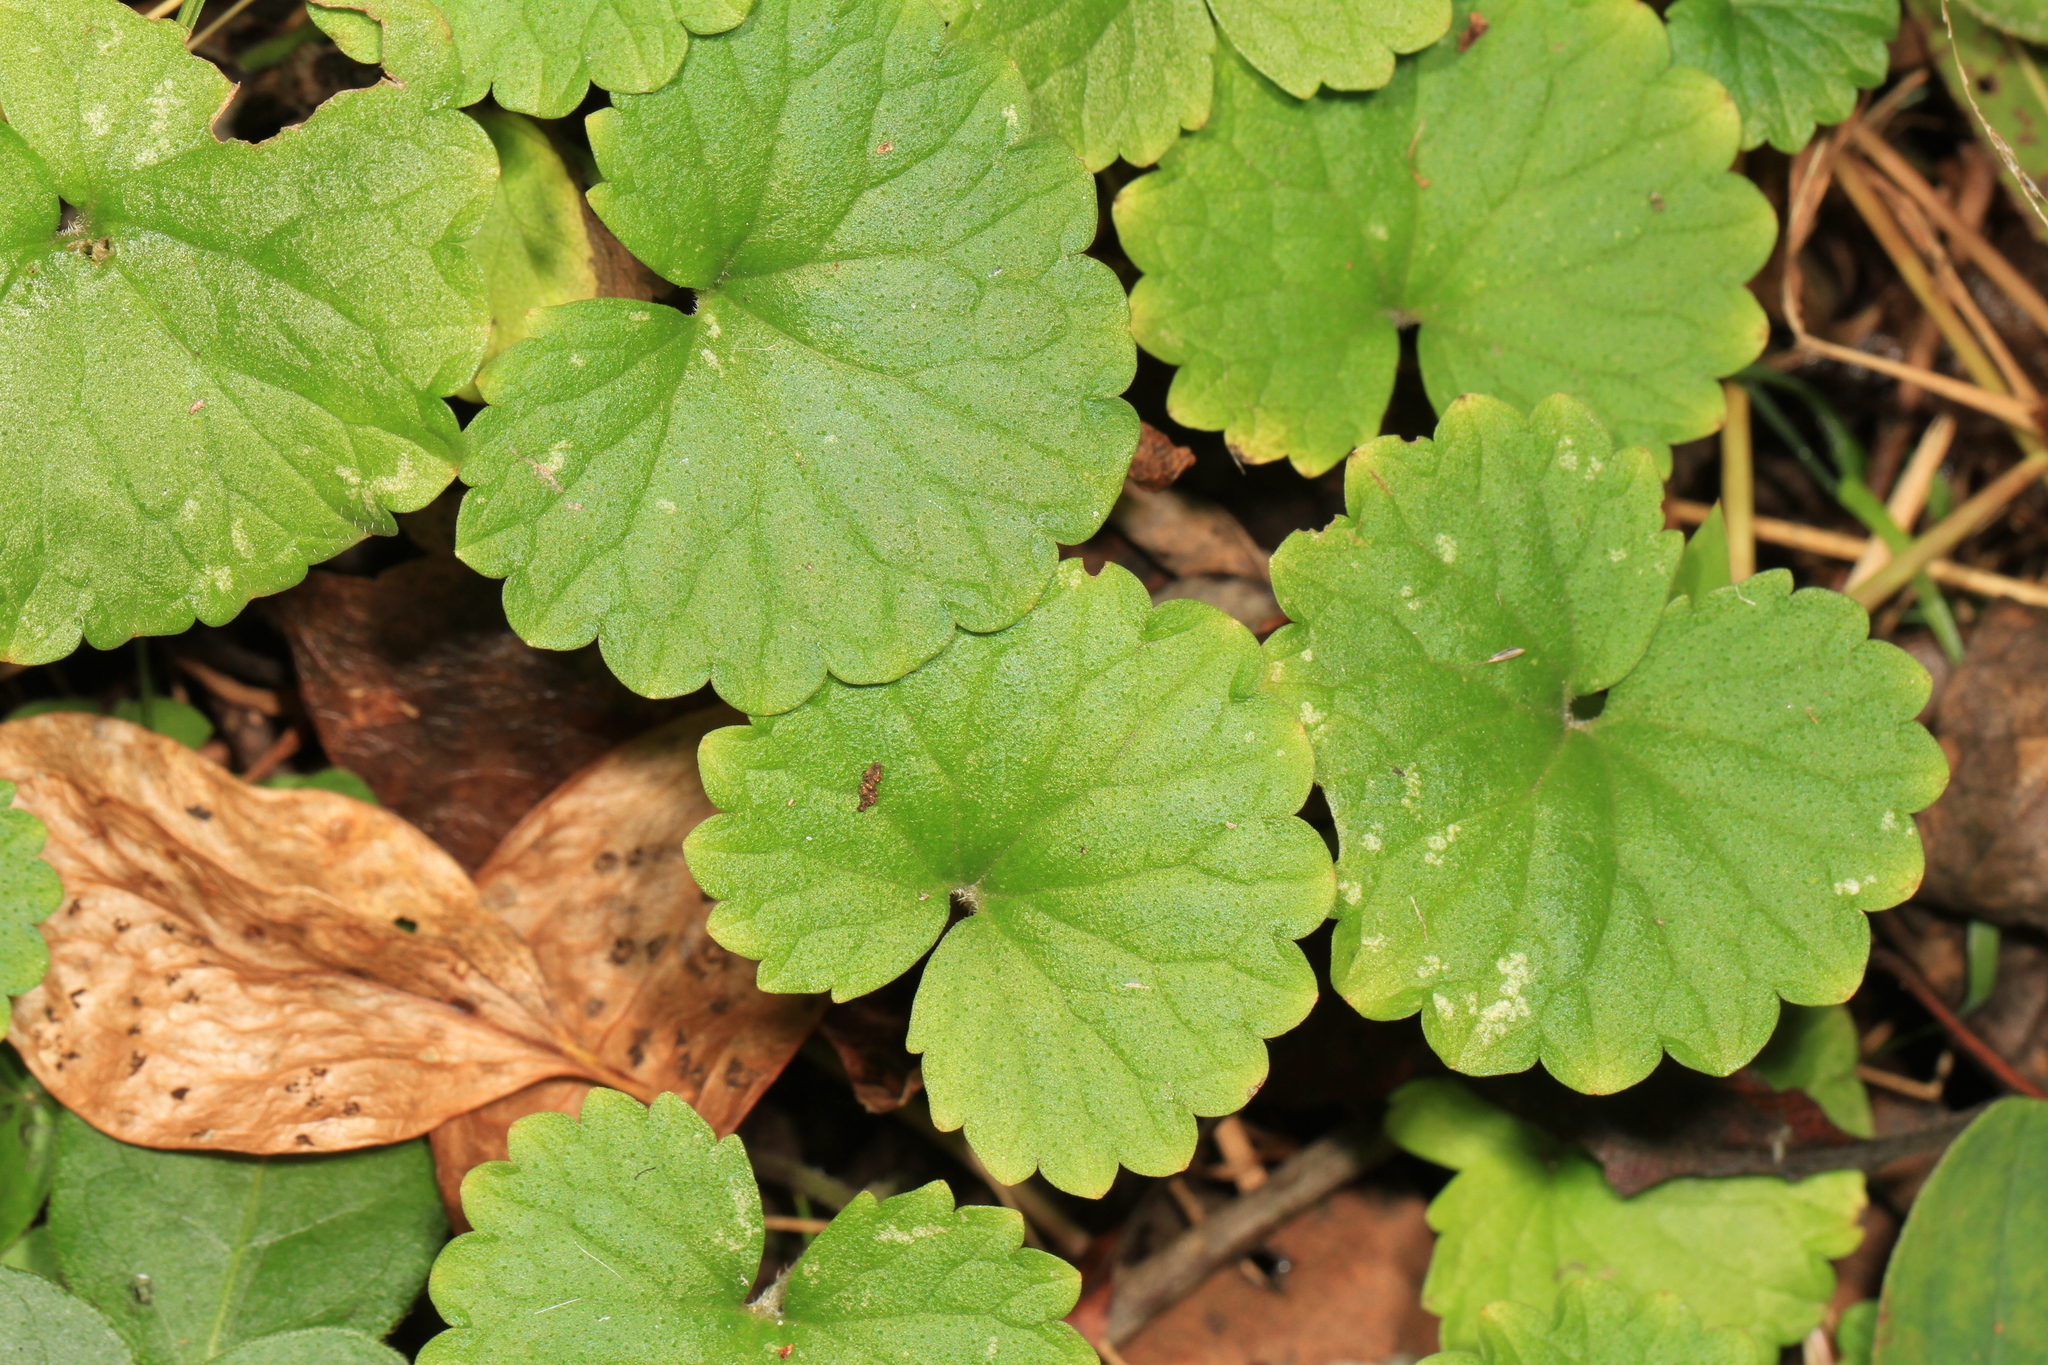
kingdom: Plantae
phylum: Tracheophyta
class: Magnoliopsida
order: Lamiales
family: Lamiaceae
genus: Glechoma
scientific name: Glechoma hederacea
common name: Ground ivy
